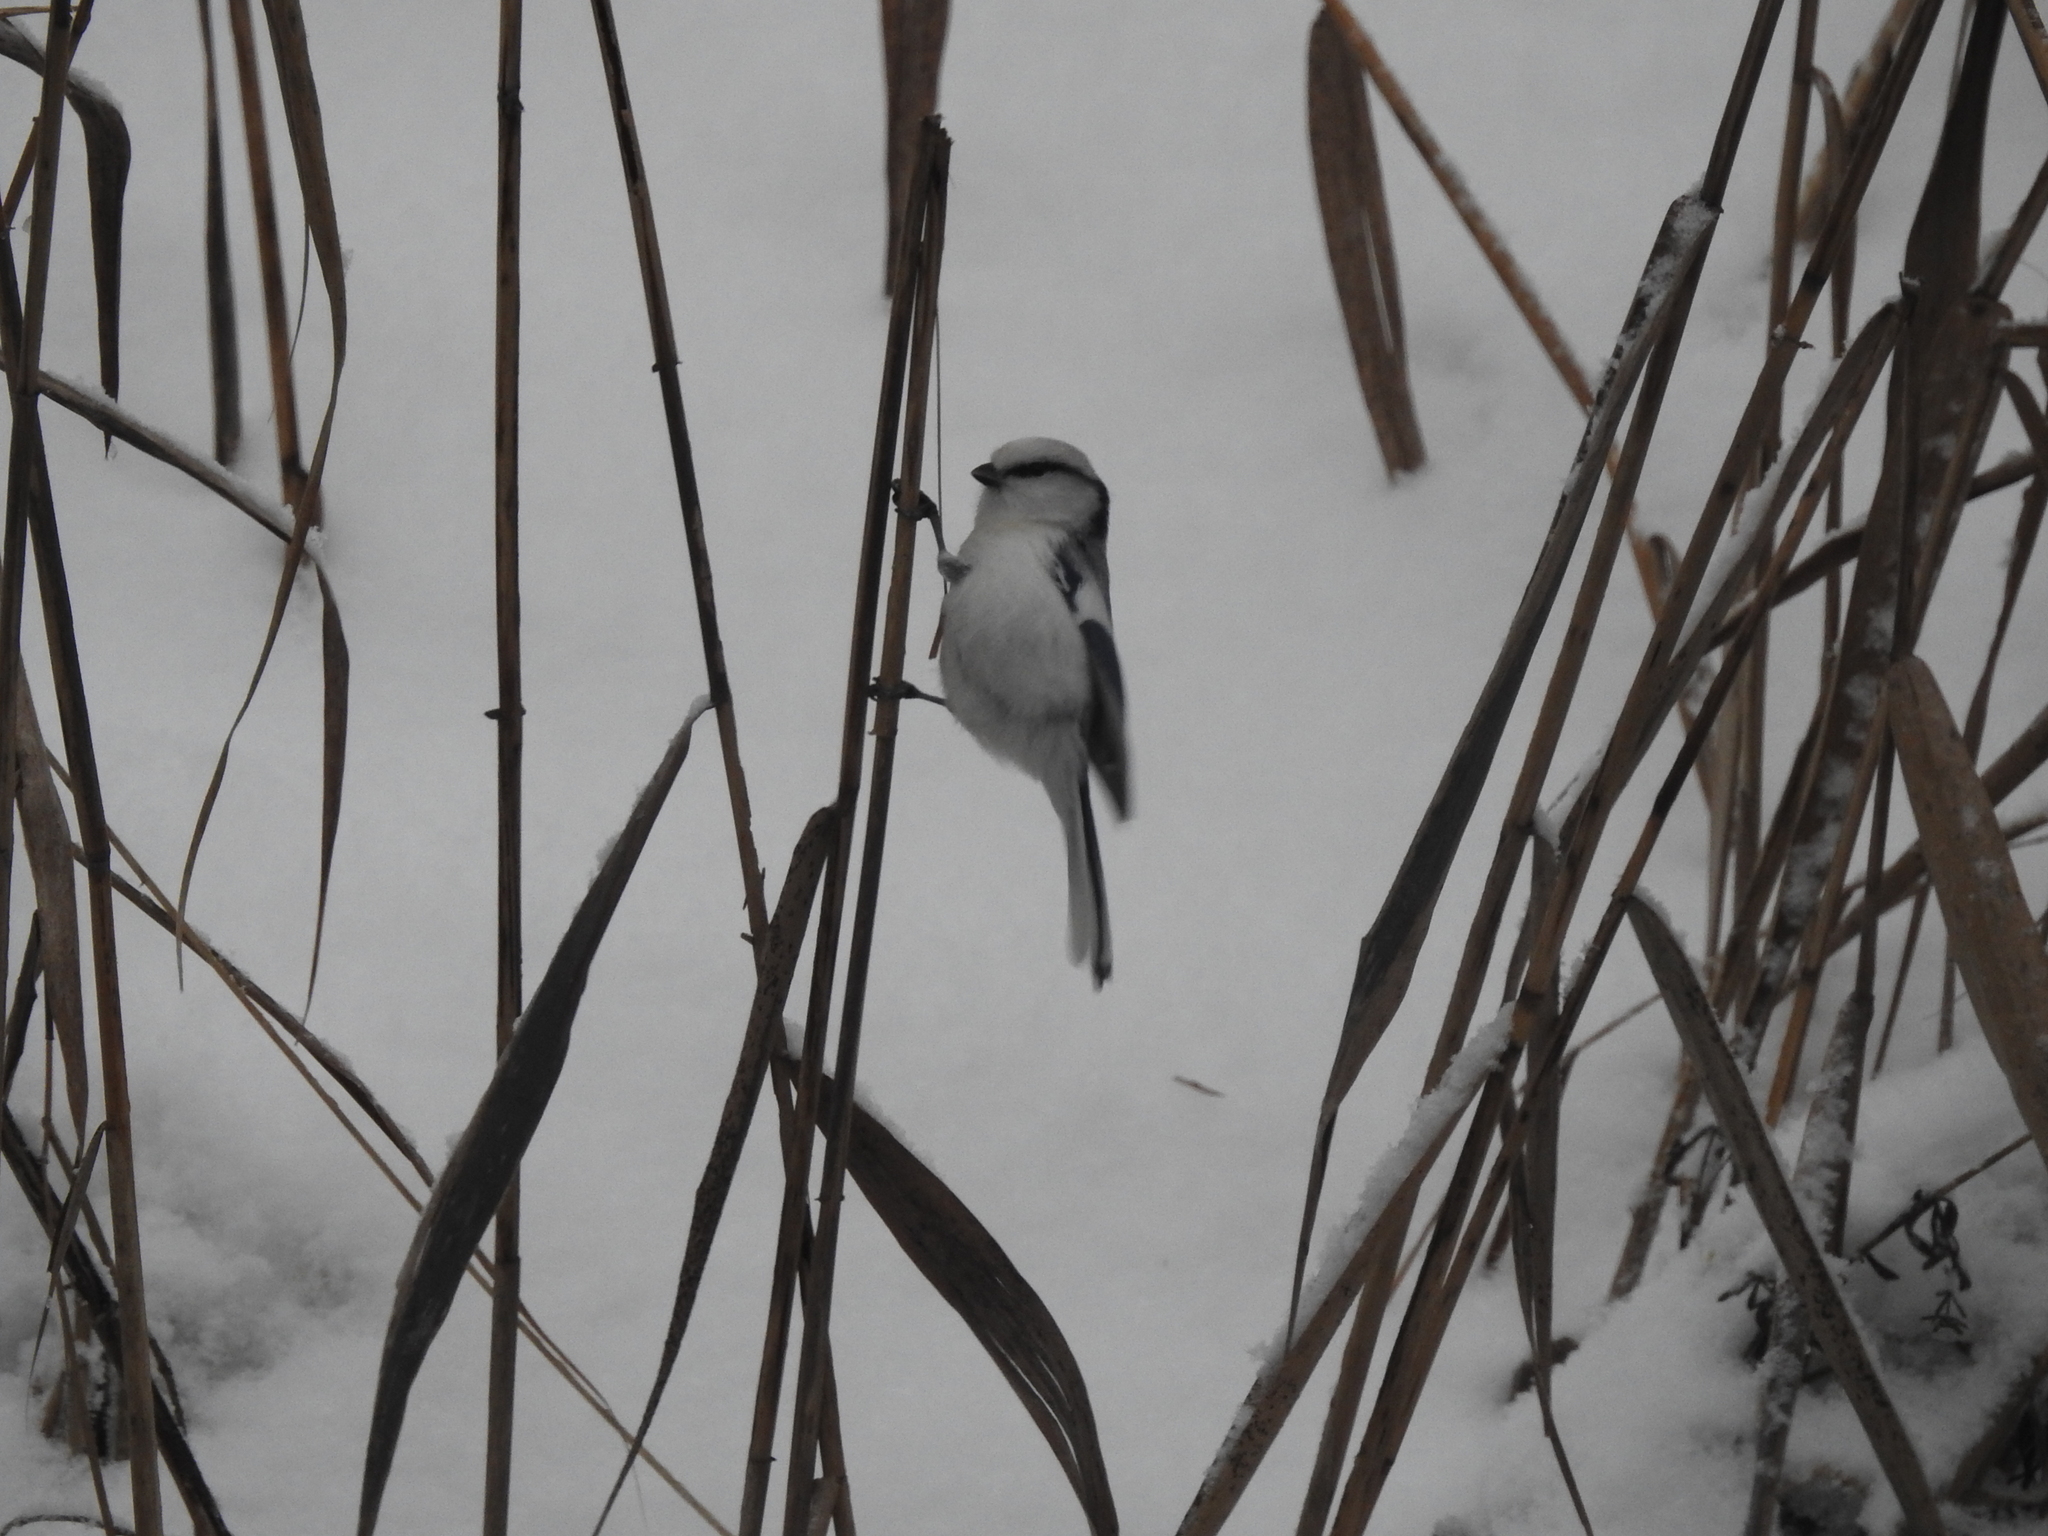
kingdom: Animalia
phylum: Chordata
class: Aves
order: Passeriformes
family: Paridae
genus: Cyanistes
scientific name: Cyanistes cyanus
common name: Azure tit
